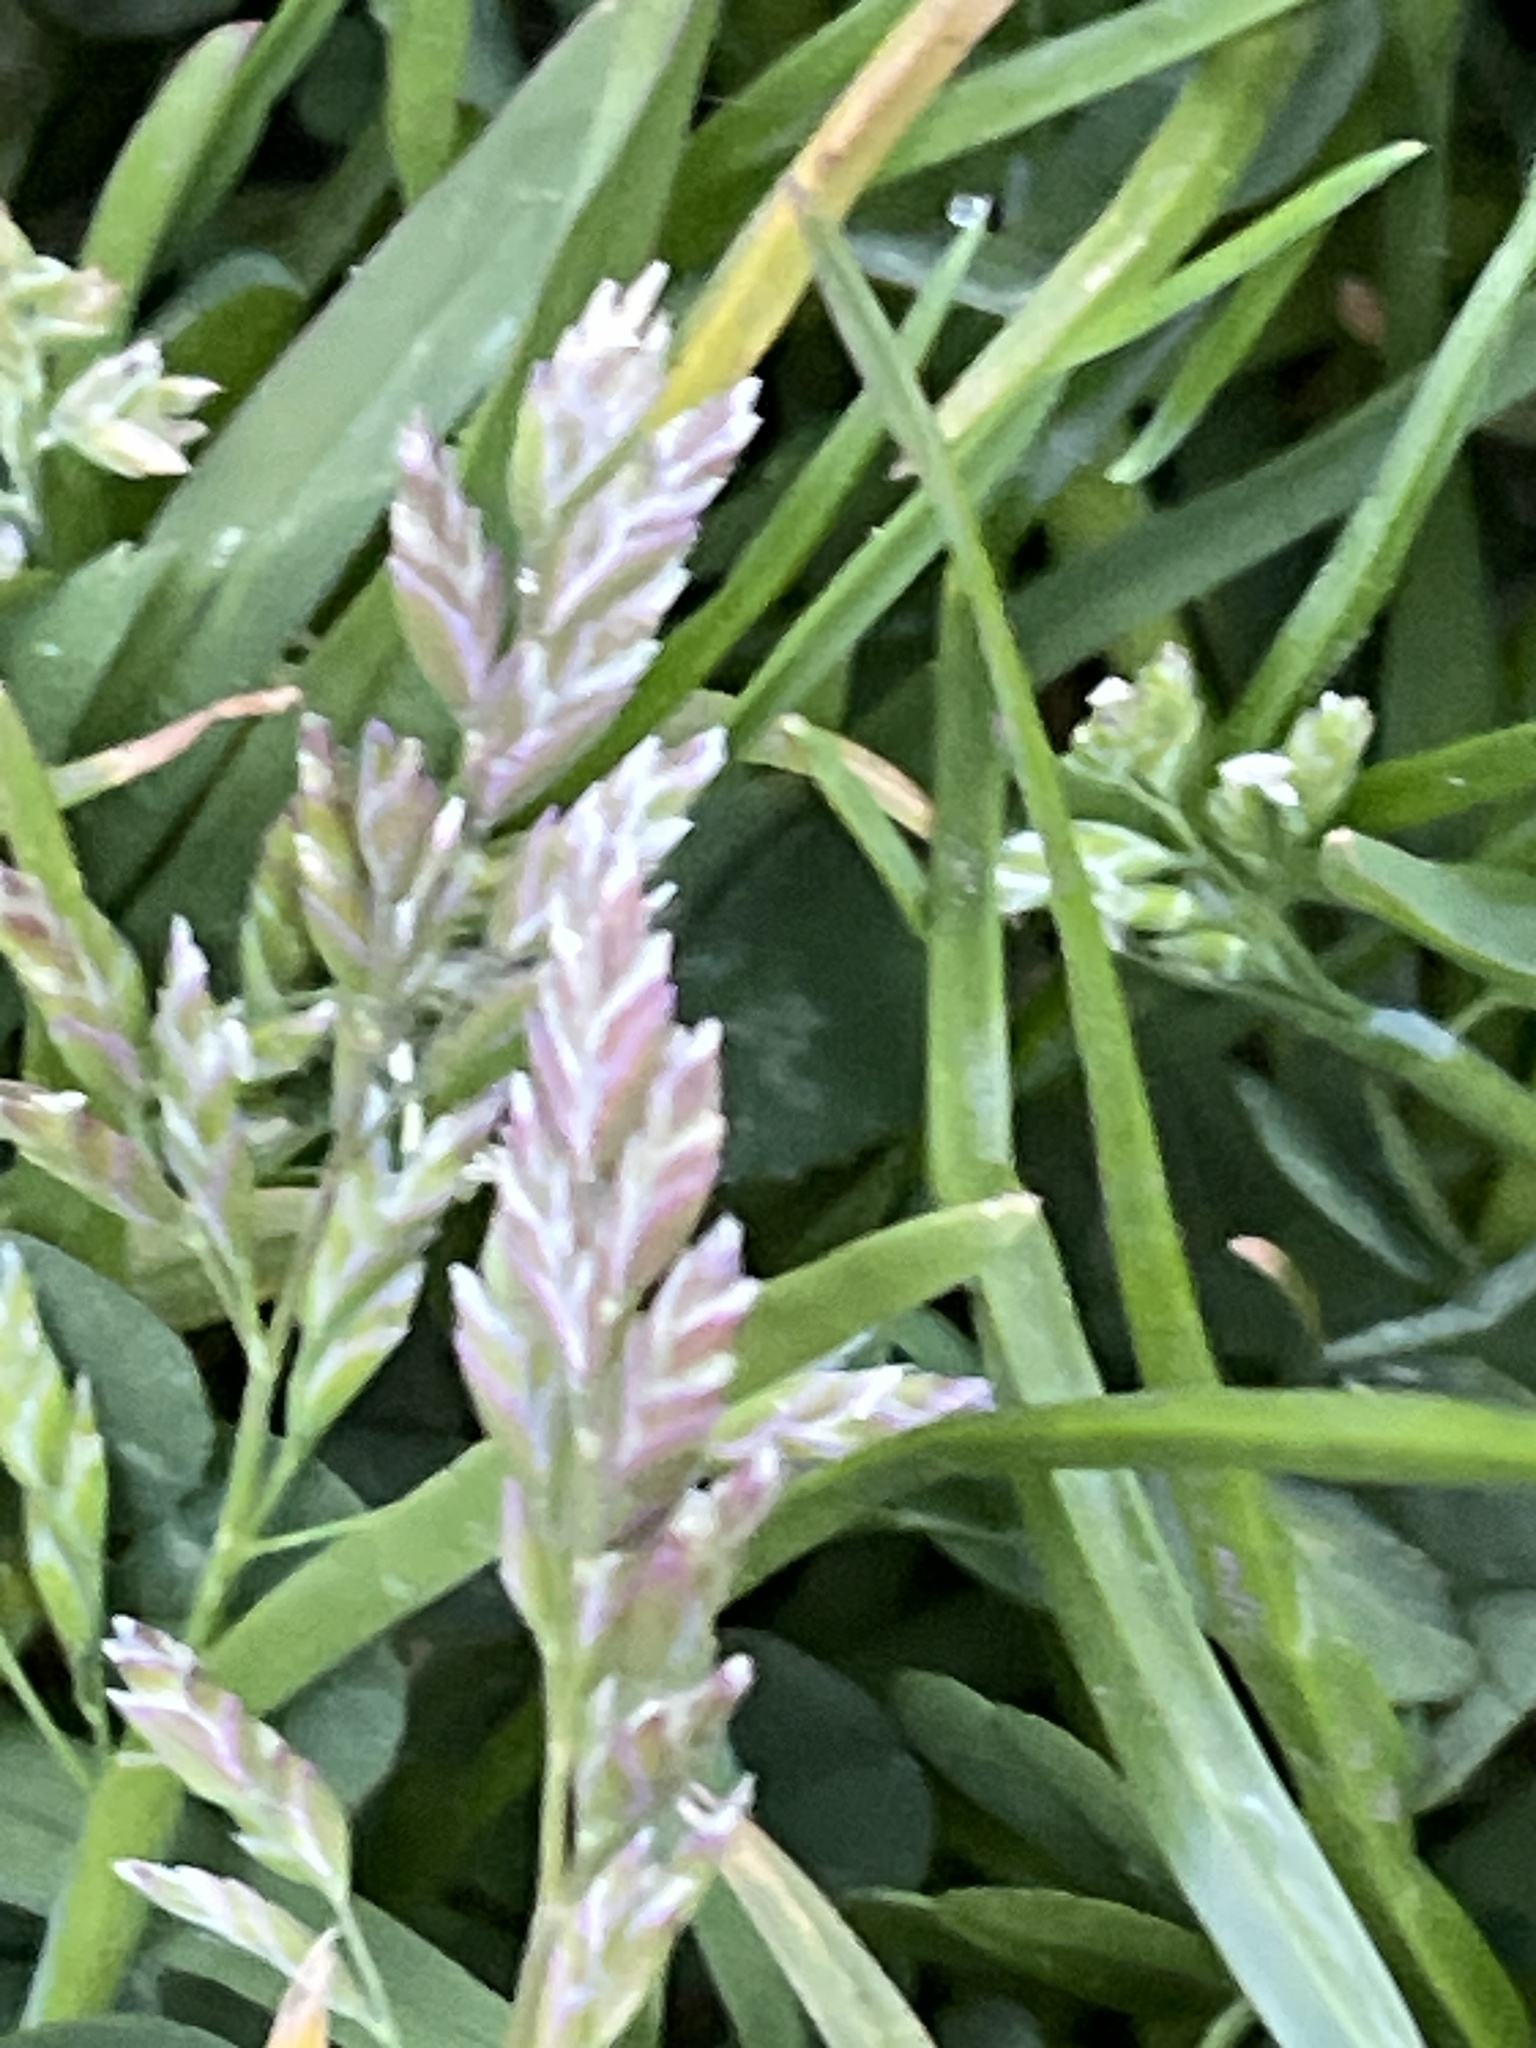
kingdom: Plantae
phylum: Tracheophyta
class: Liliopsida
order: Poales
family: Poaceae
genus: Poa
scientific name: Poa annua
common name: Annual bluegrass
